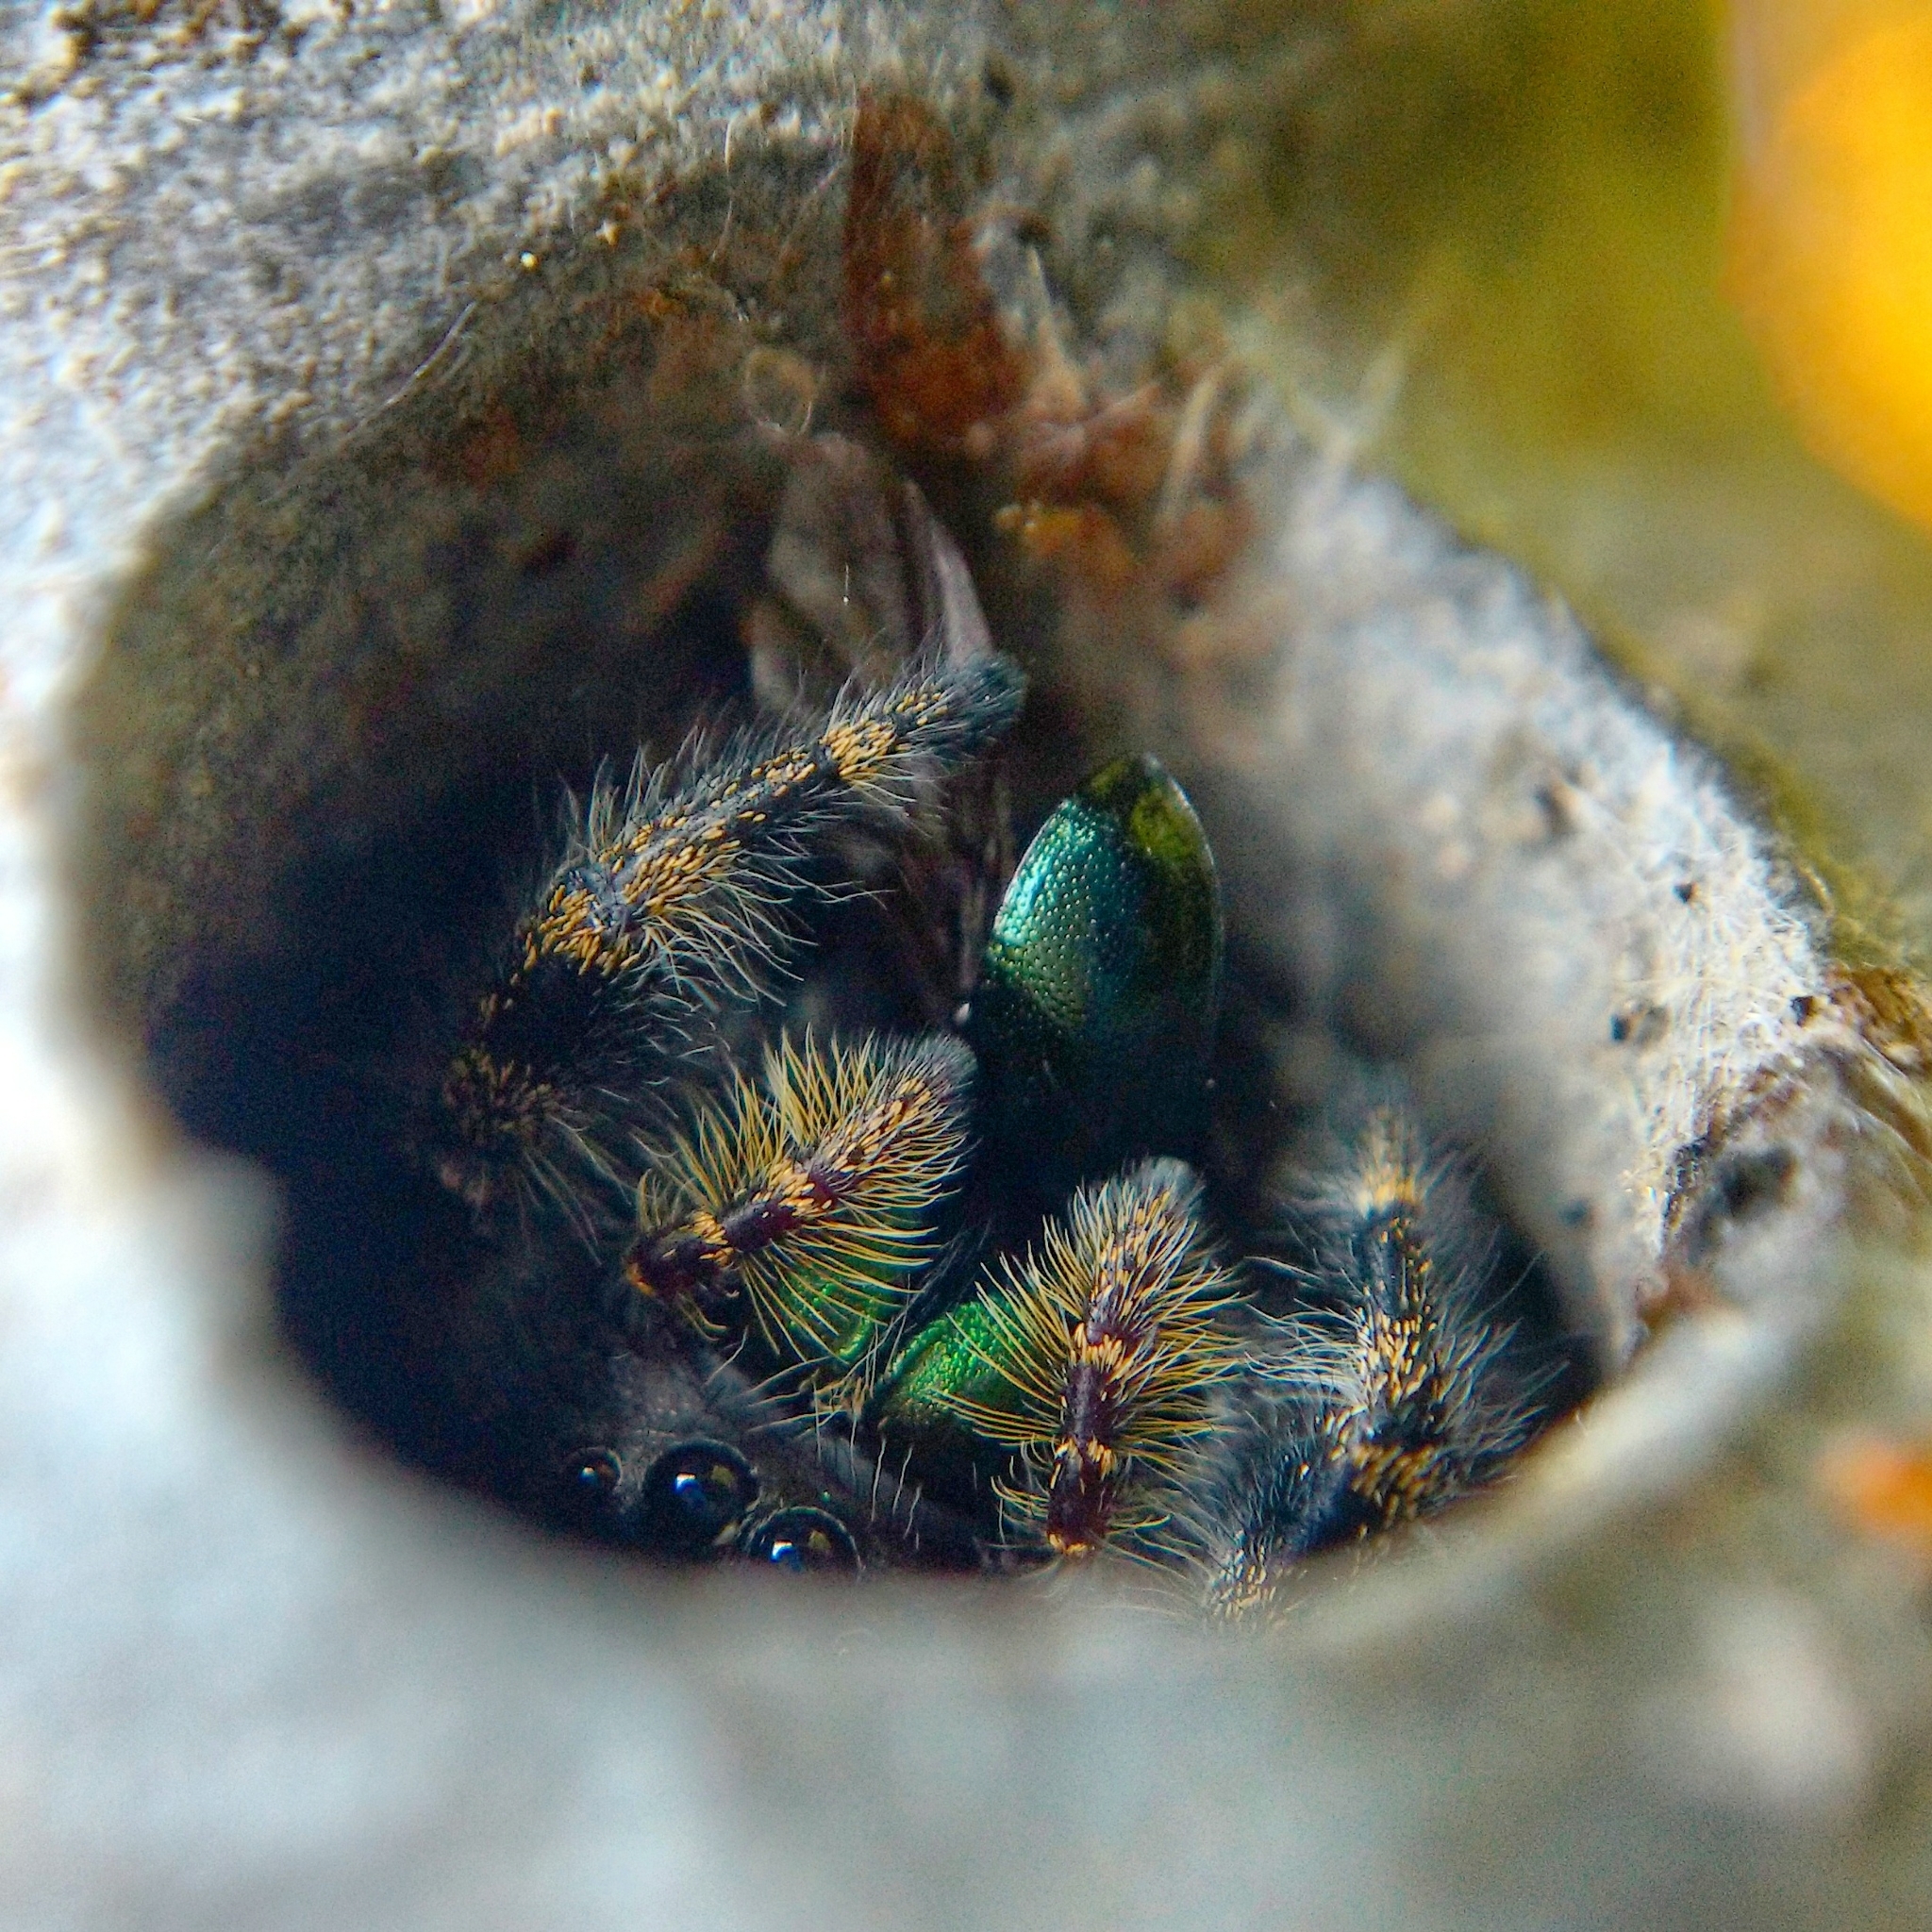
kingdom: Animalia
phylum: Arthropoda
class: Arachnida
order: Araneae
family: Salticidae
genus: Phidippus
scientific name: Phidippus audax
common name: Bold jumper
